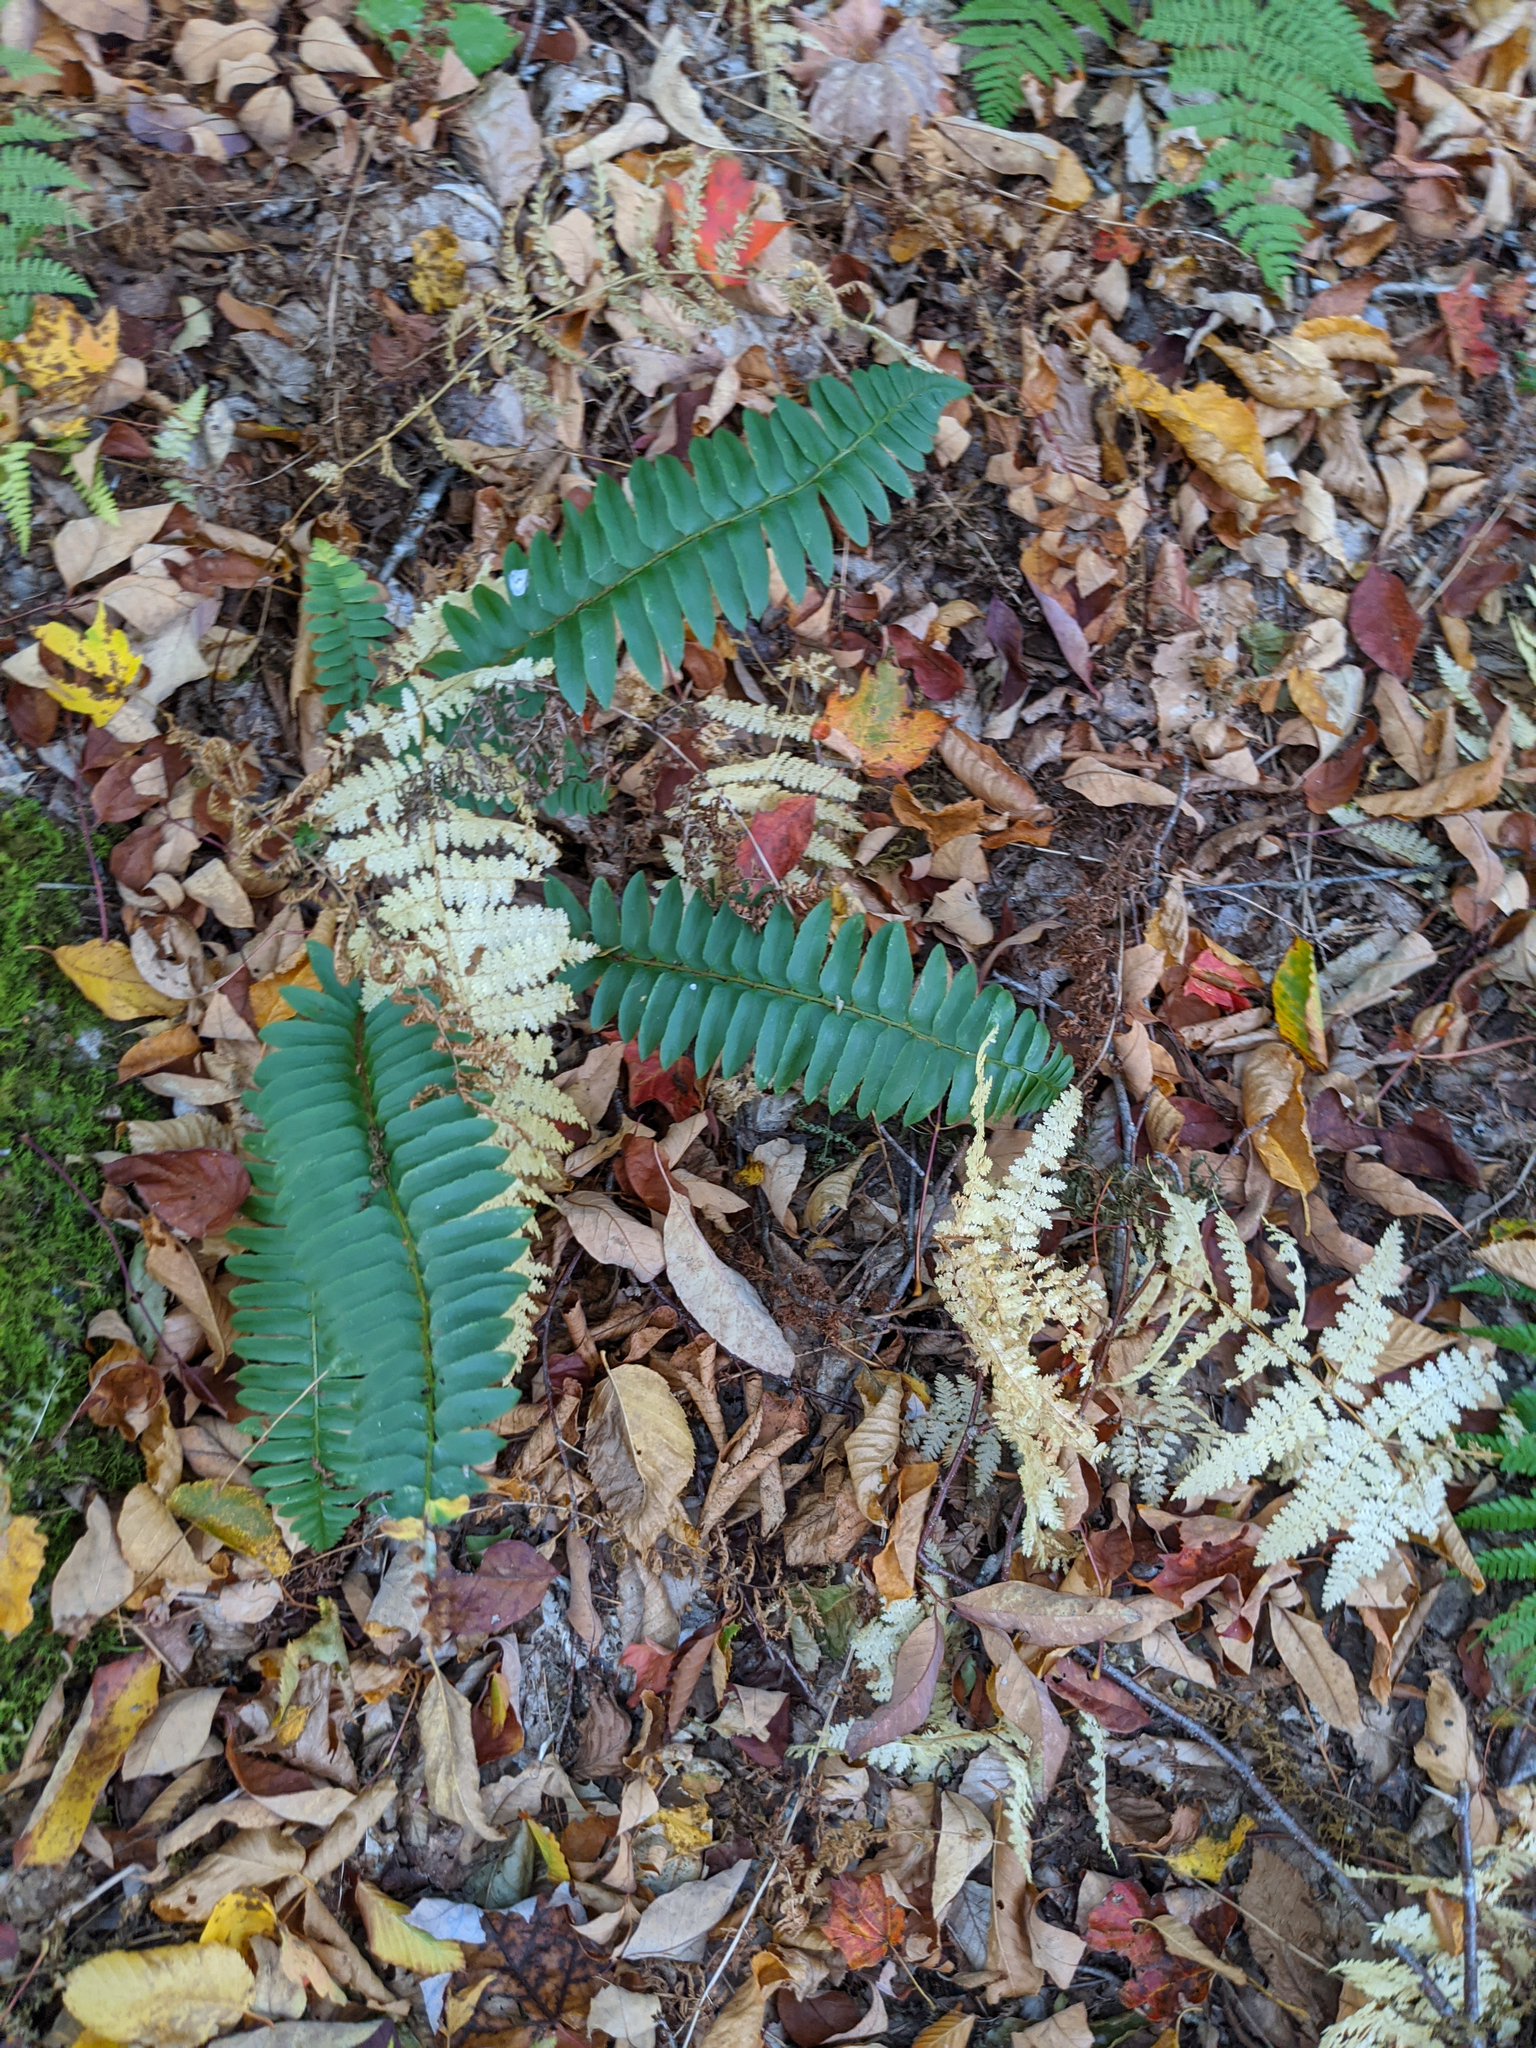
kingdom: Plantae
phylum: Tracheophyta
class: Polypodiopsida
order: Polypodiales
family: Dryopteridaceae
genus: Polystichum
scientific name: Polystichum acrostichoides
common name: Christmas fern
